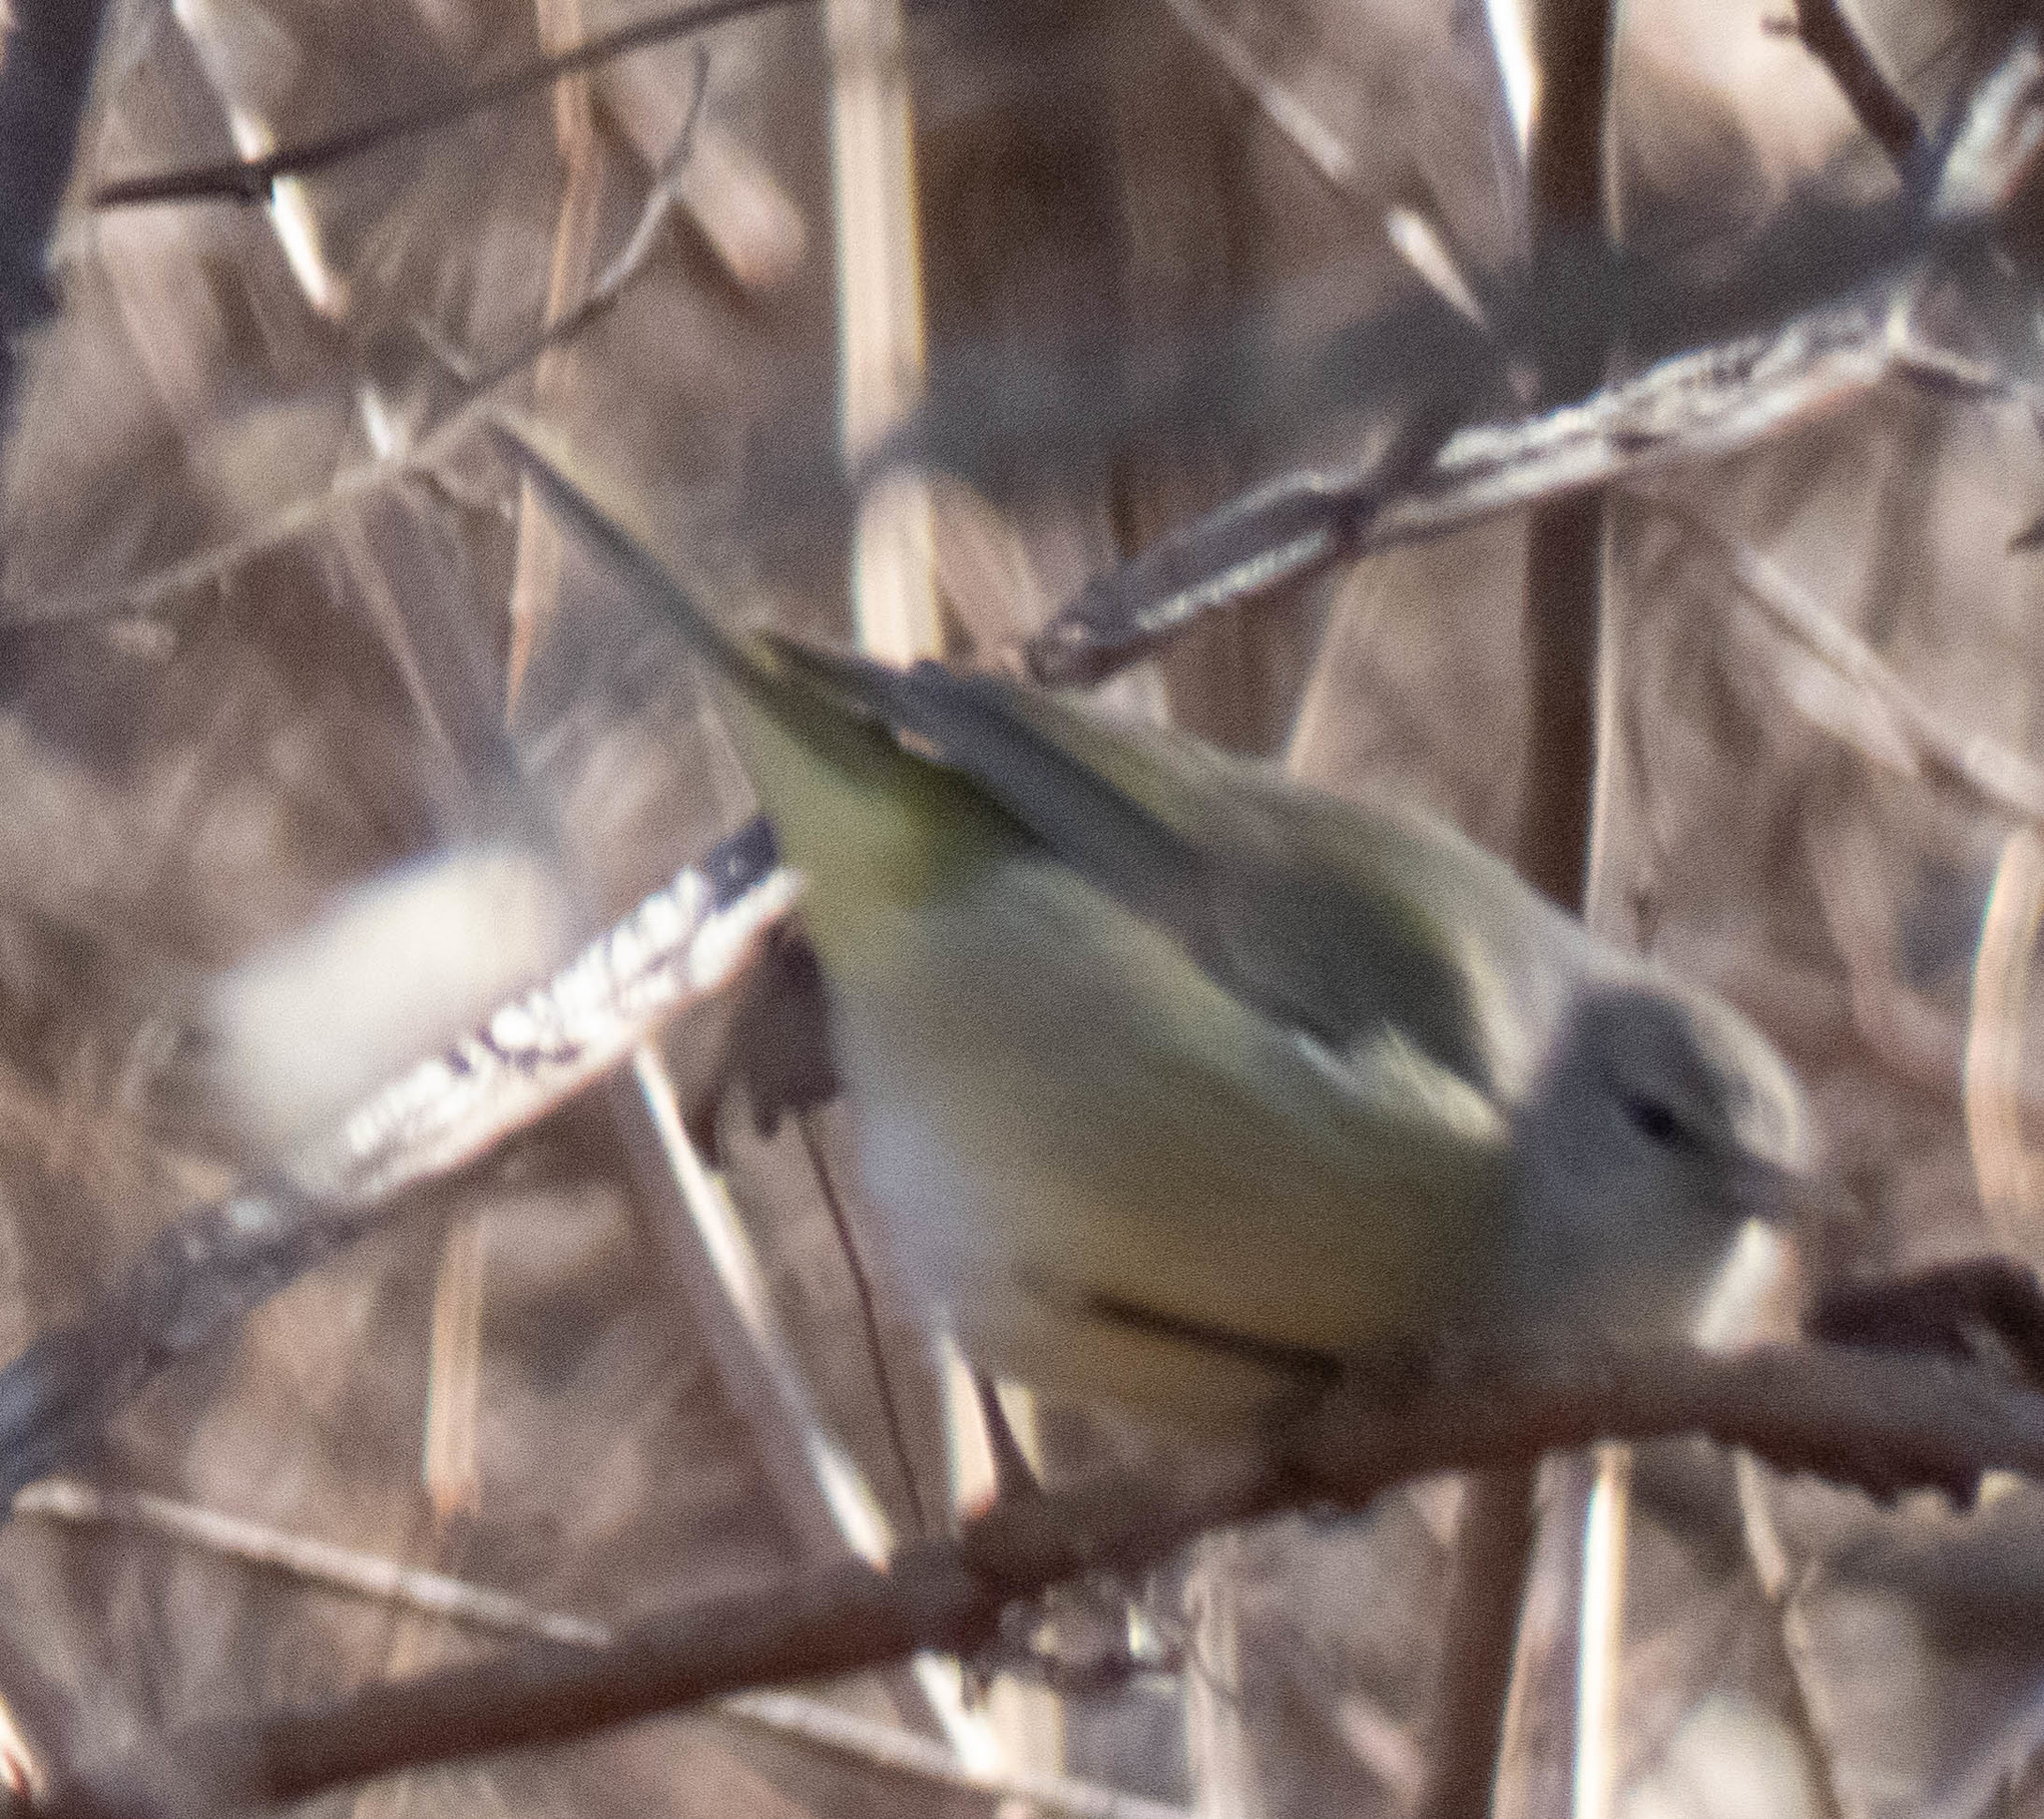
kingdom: Animalia
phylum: Chordata
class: Aves
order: Passeriformes
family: Parulidae
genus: Leiothlypis
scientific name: Leiothlypis celata
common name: Orange-crowned warbler
